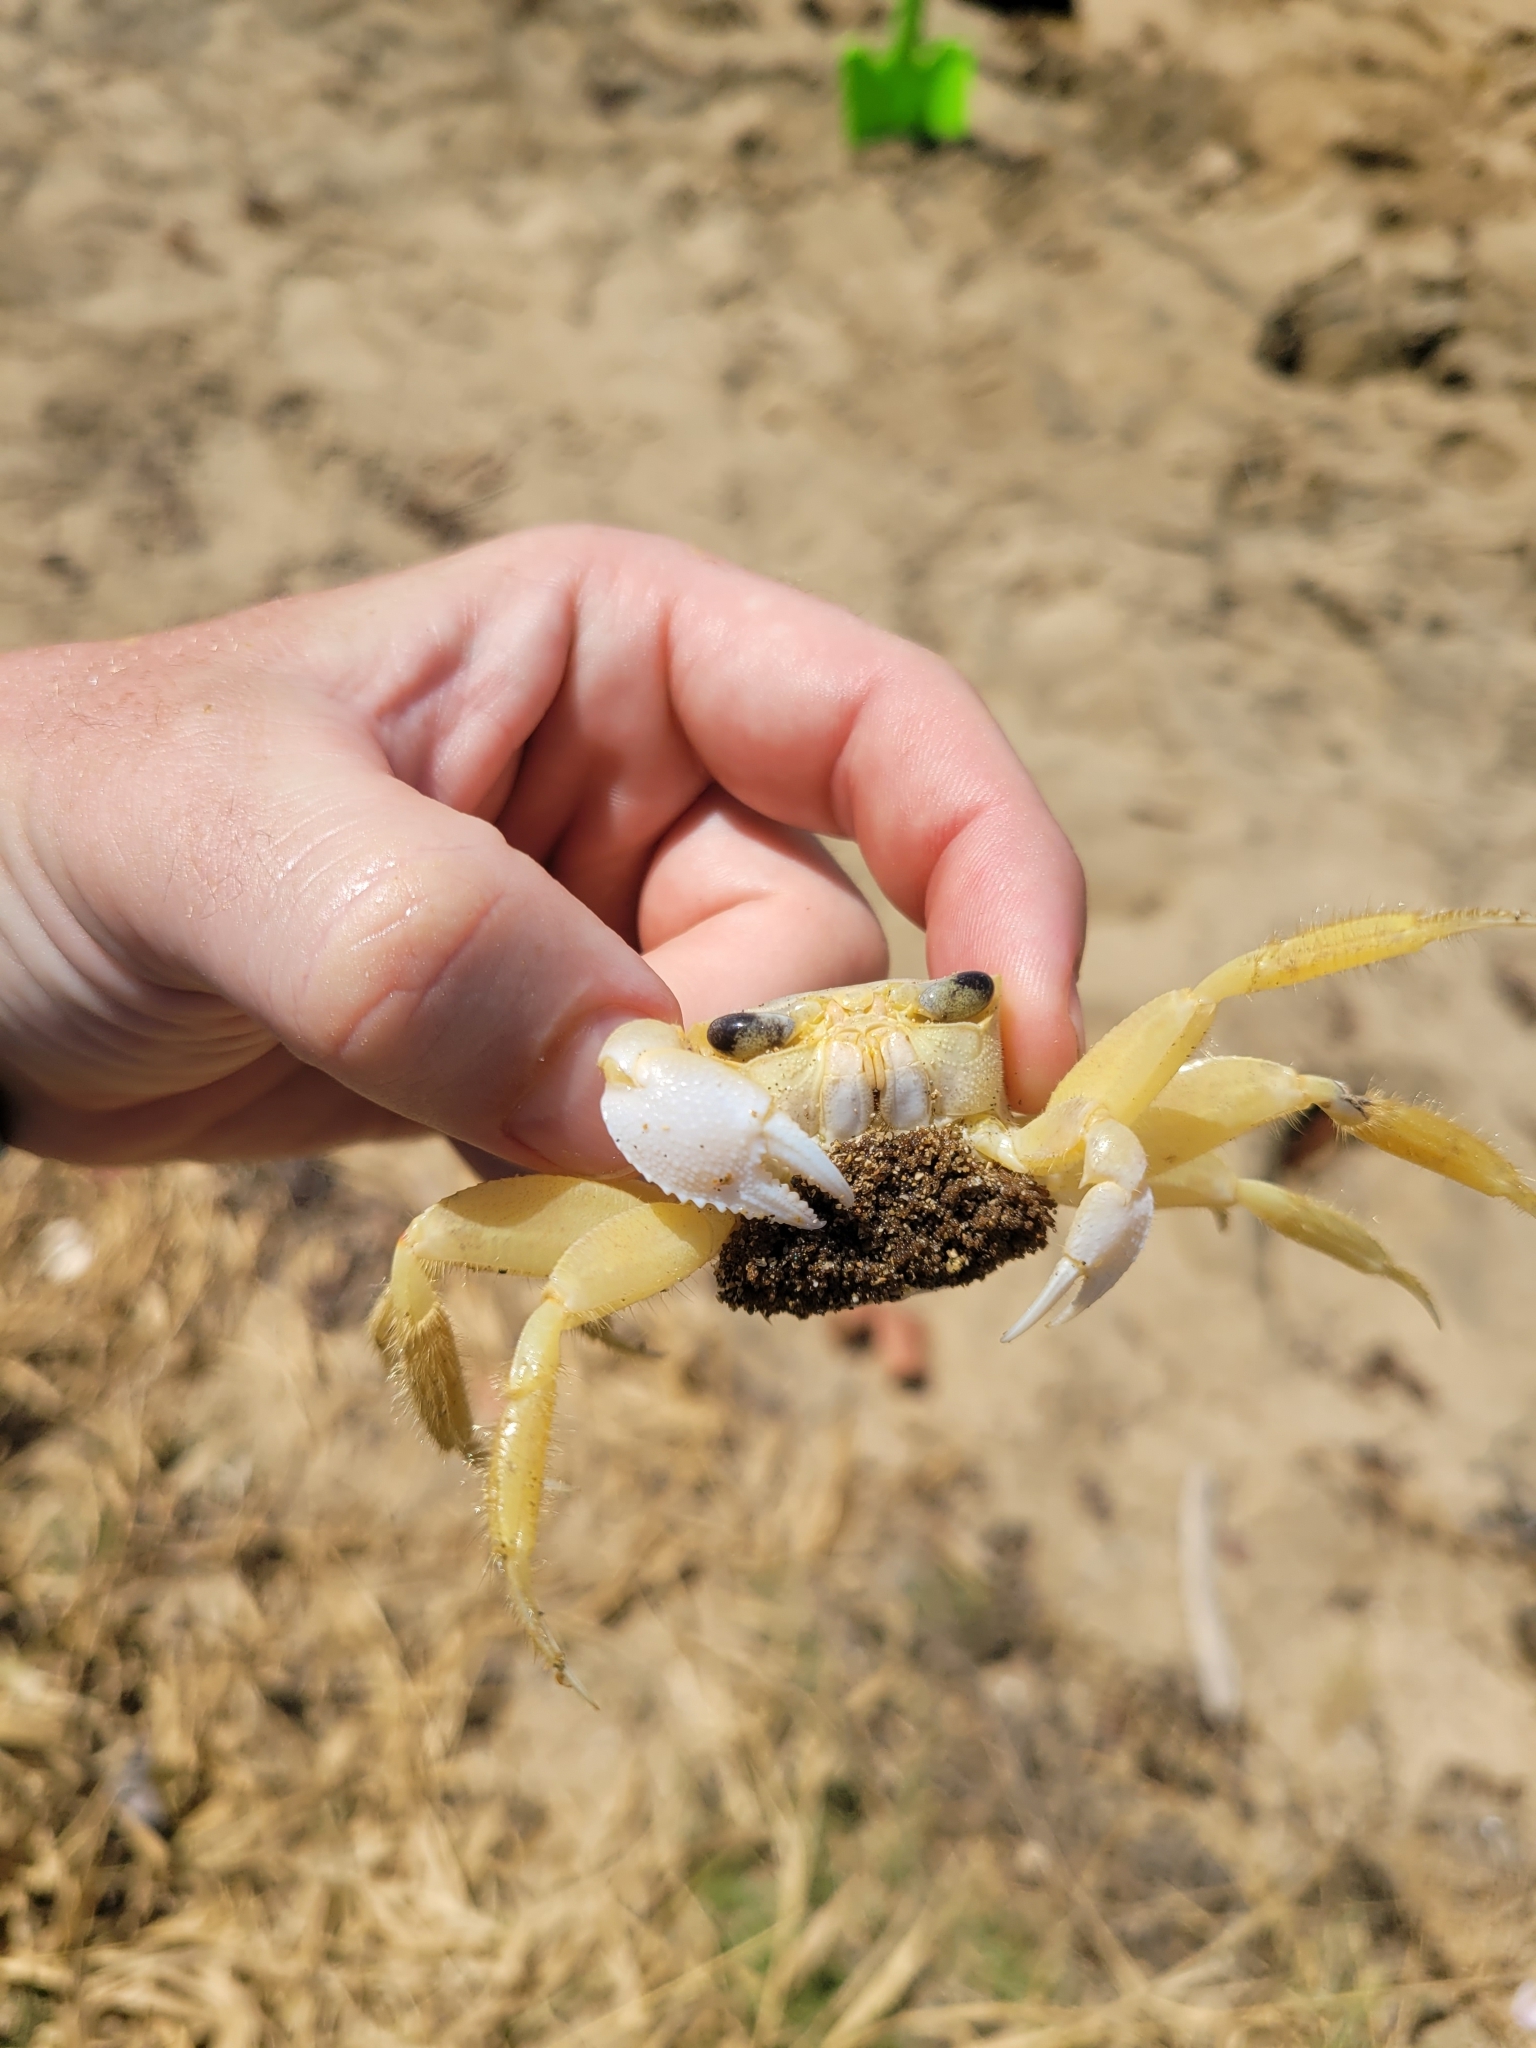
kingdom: Animalia
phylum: Arthropoda
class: Malacostraca
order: Decapoda
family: Ocypodidae
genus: Ocypode
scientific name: Ocypode quadrata
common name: Ghost crab
